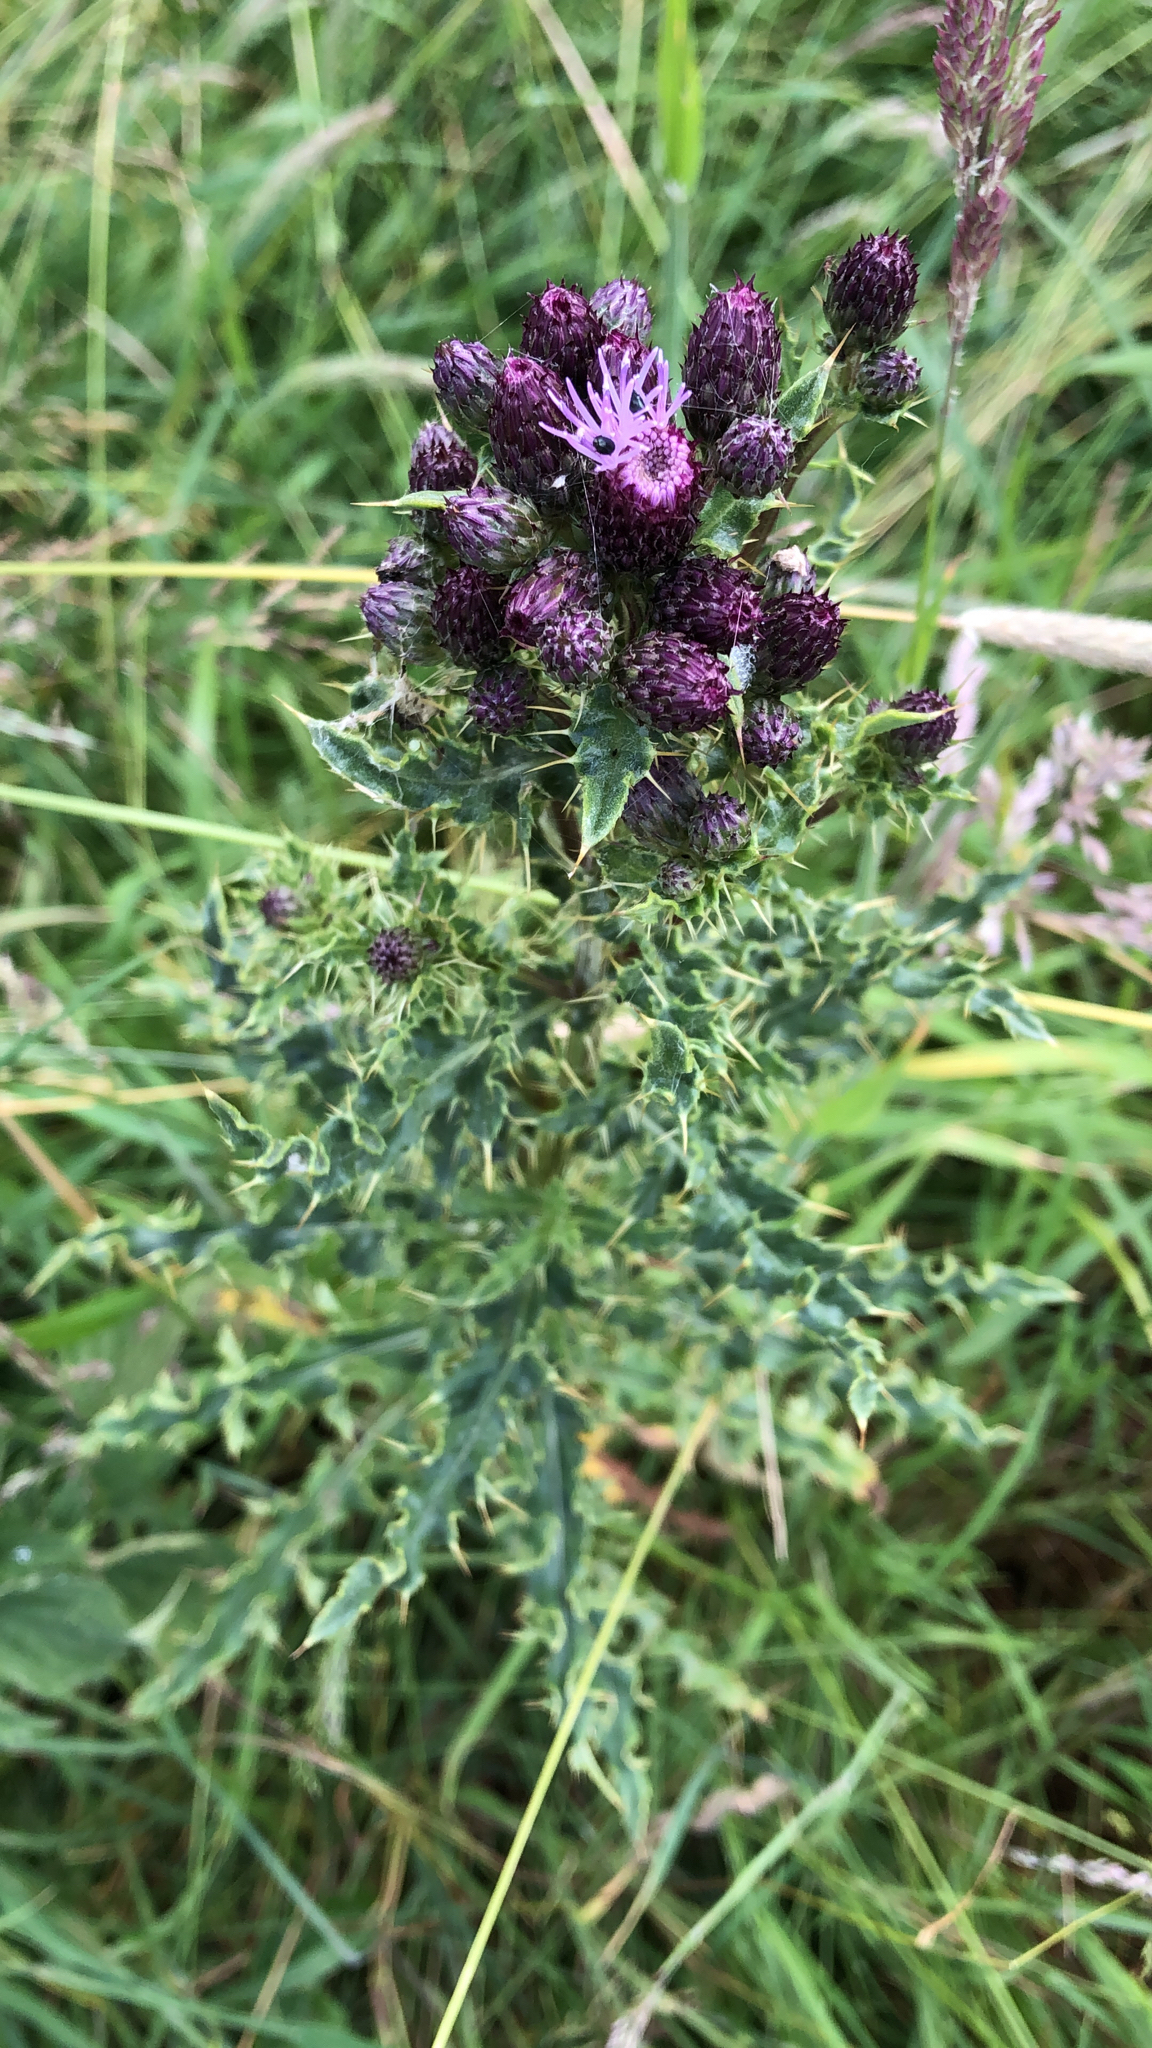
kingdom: Plantae
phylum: Tracheophyta
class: Magnoliopsida
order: Asterales
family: Asteraceae
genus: Cirsium
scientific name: Cirsium arvense
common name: Creeping thistle
